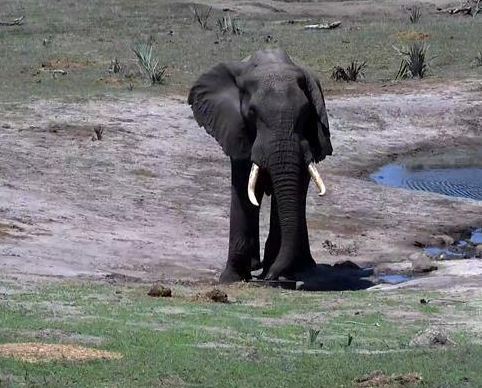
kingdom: Animalia
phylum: Chordata
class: Mammalia
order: Proboscidea
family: Elephantidae
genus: Loxodonta
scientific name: Loxodonta africana
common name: African elephant
